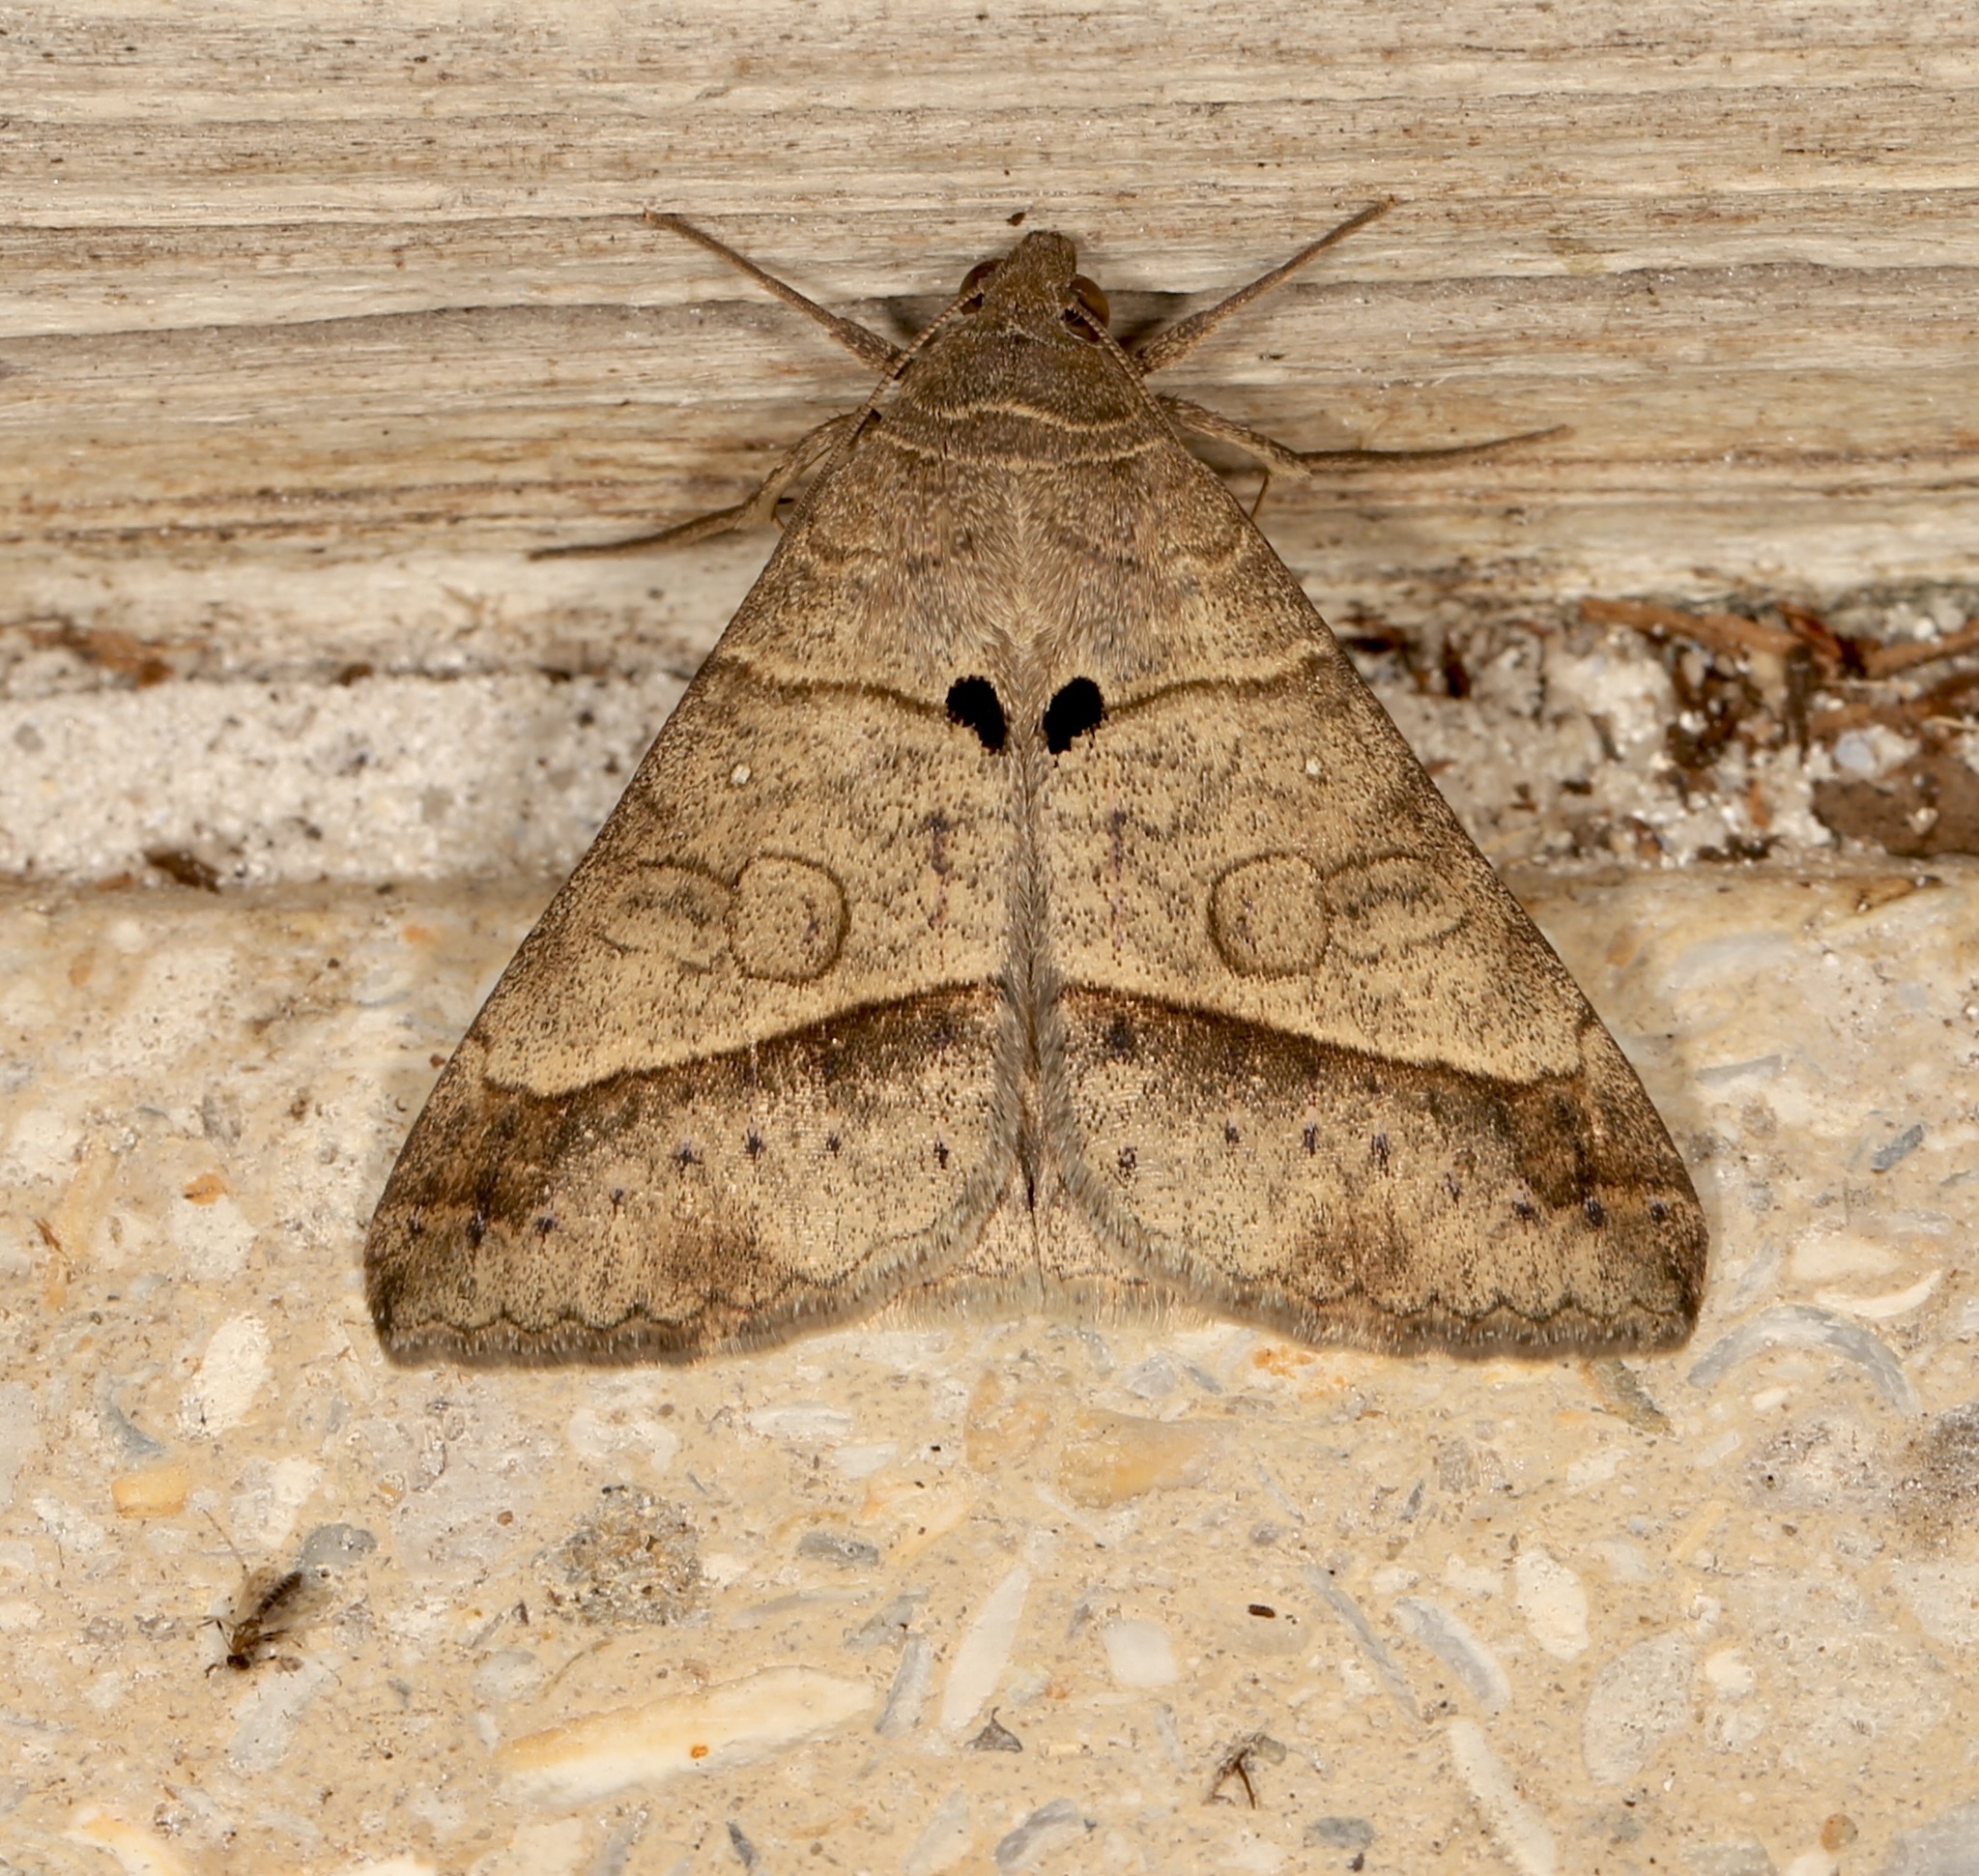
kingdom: Animalia
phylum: Arthropoda
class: Insecta
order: Lepidoptera
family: Erebidae
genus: Mocis
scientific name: Mocis latipes
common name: Striped grass looper
